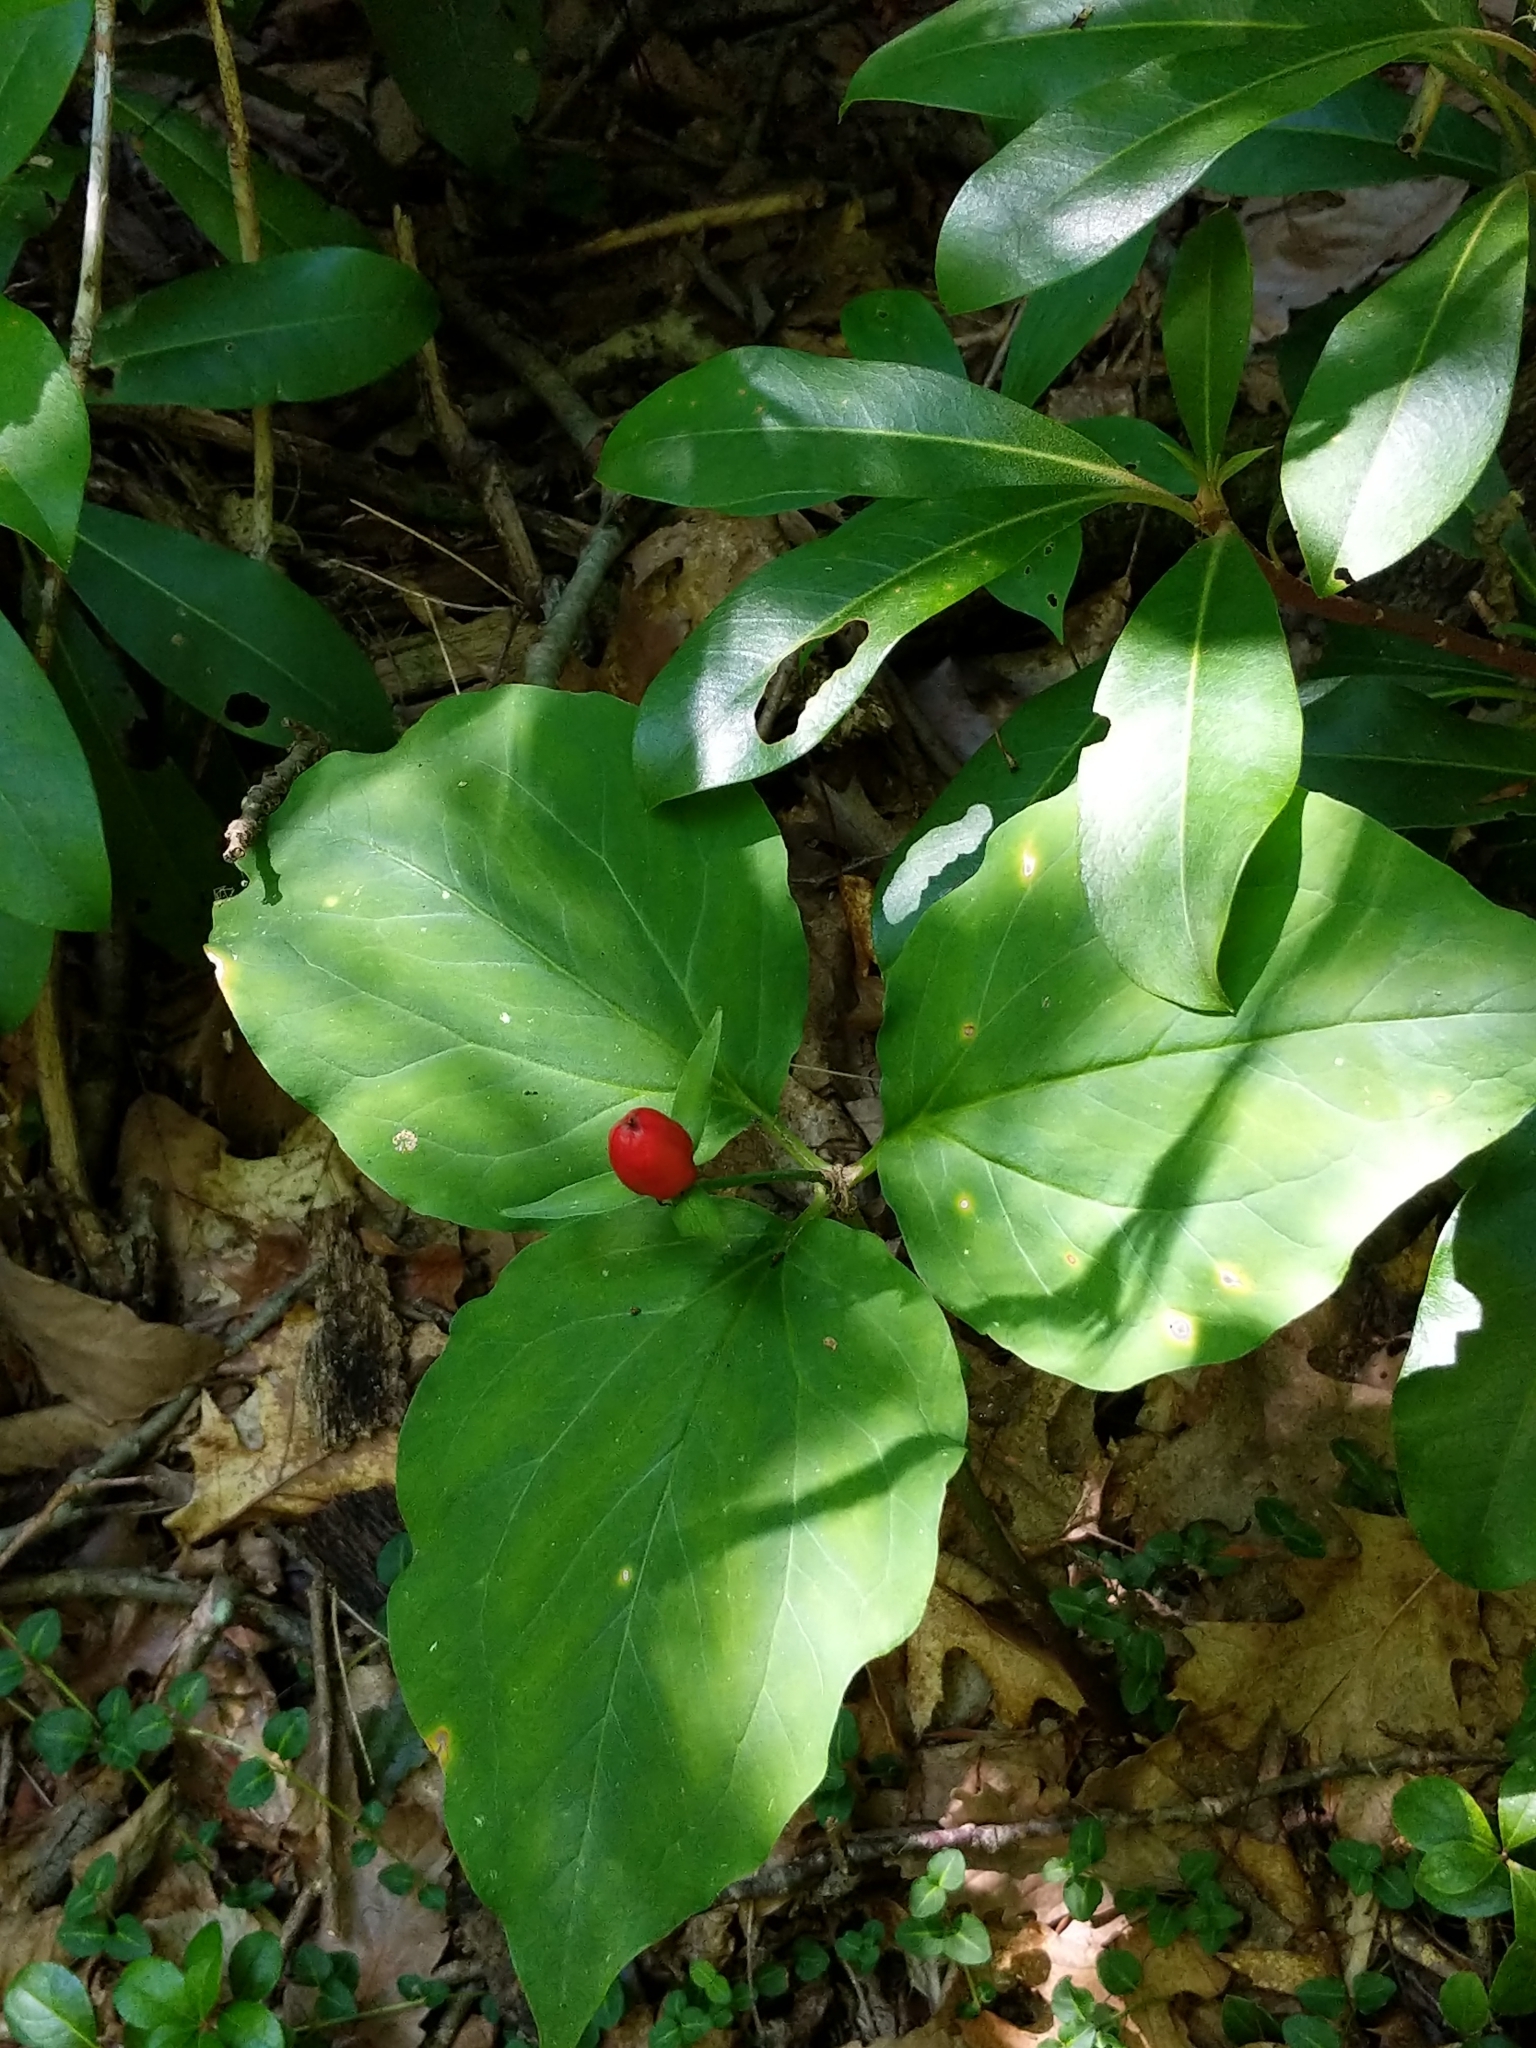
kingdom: Plantae
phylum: Tracheophyta
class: Liliopsida
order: Liliales
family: Melanthiaceae
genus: Trillium
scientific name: Trillium undulatum
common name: Paint trillium
